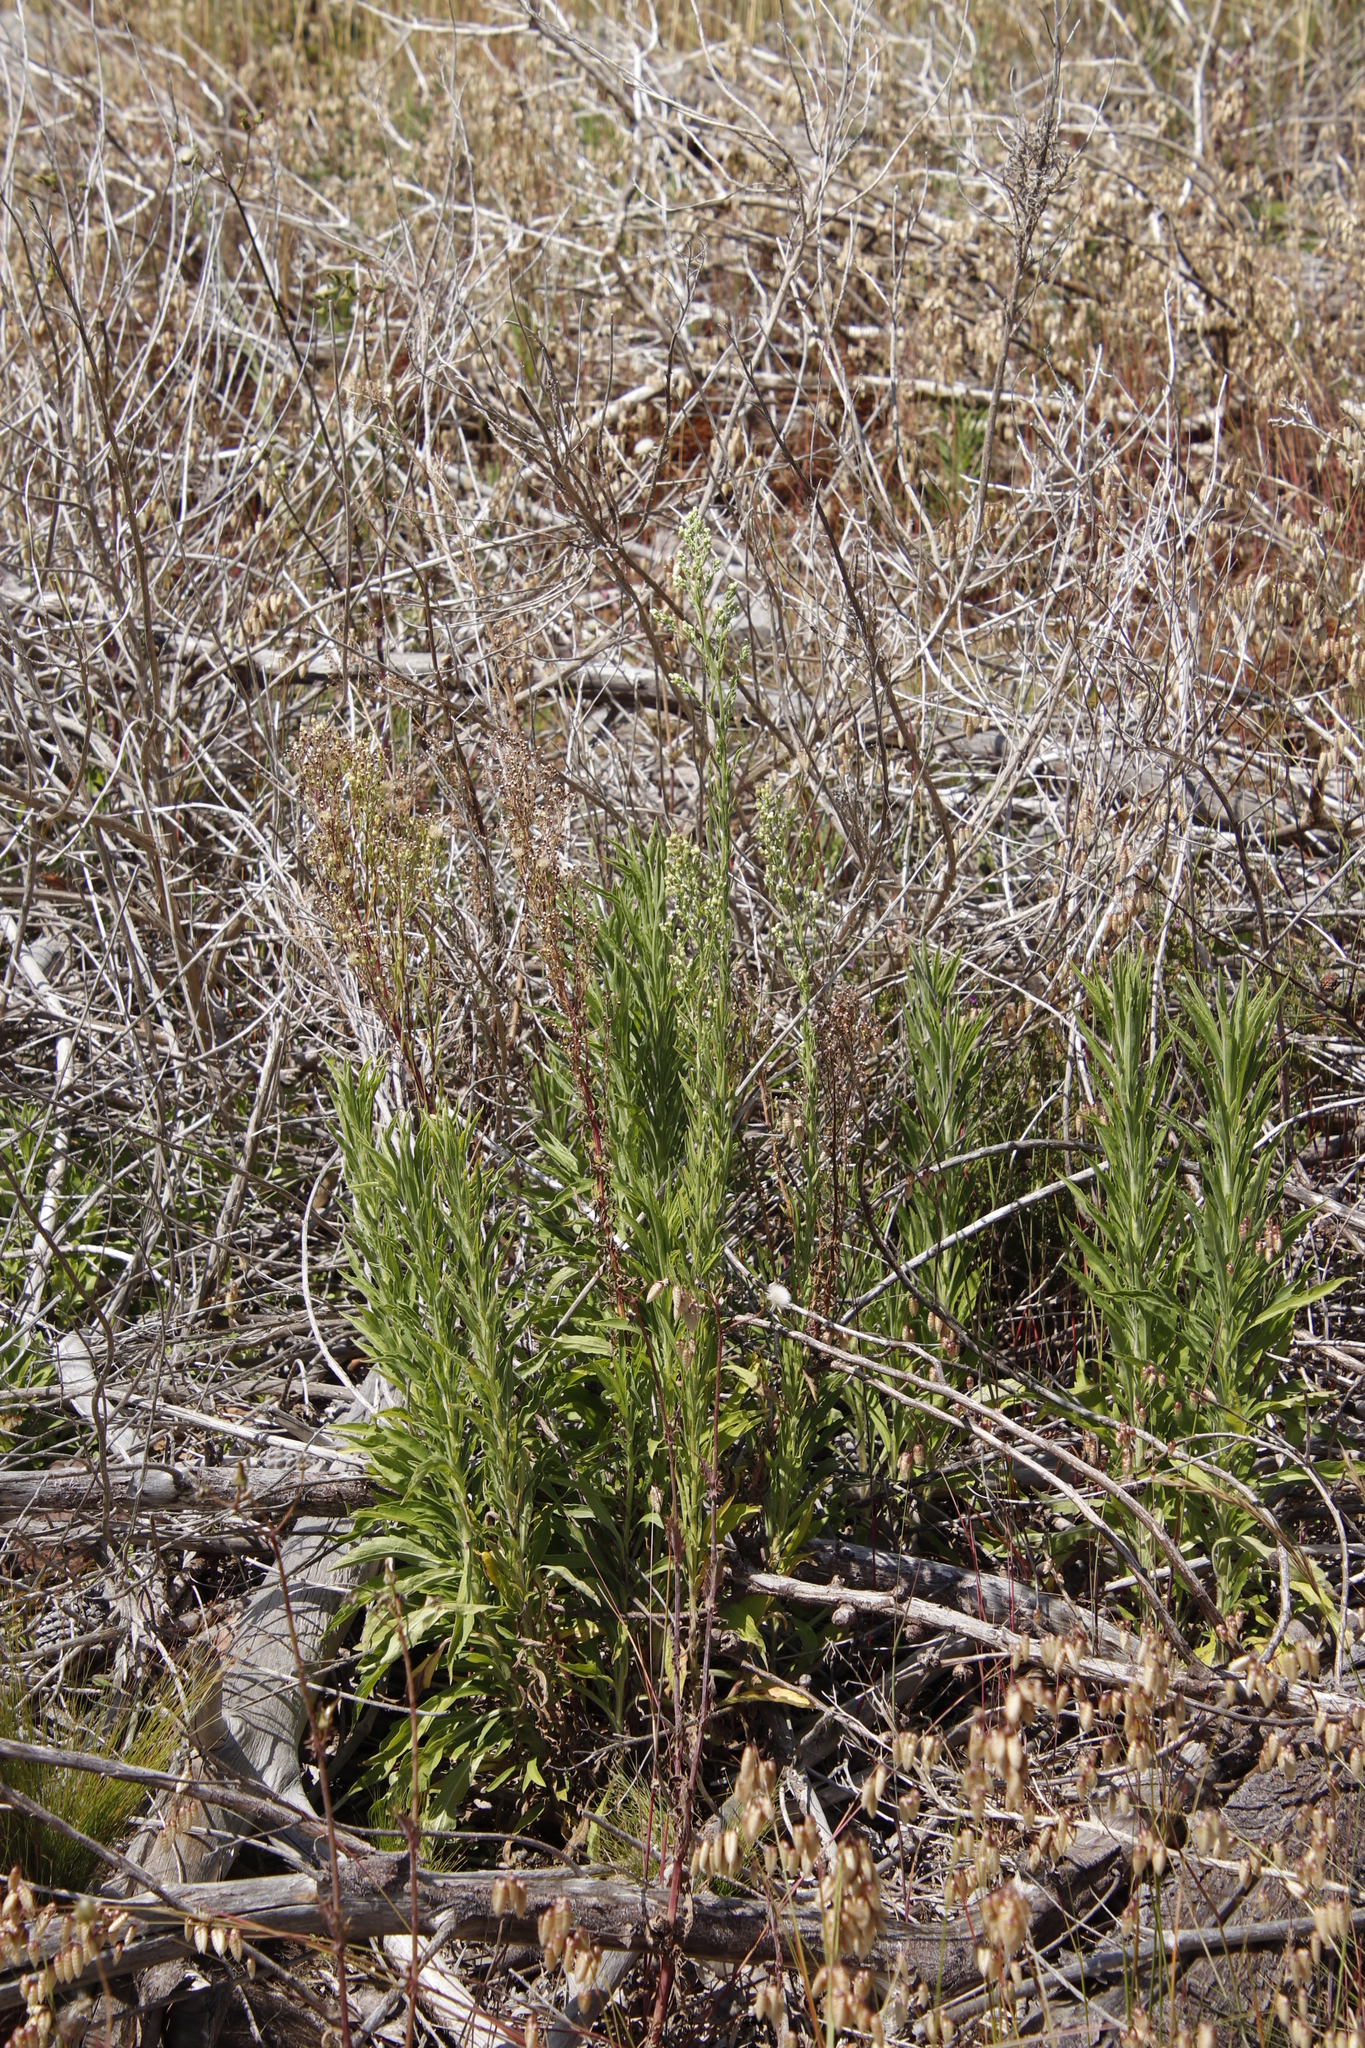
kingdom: Plantae
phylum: Tracheophyta
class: Magnoliopsida
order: Asterales
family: Asteraceae
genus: Erigeron
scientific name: Erigeron sumatrensis
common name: Daisy
